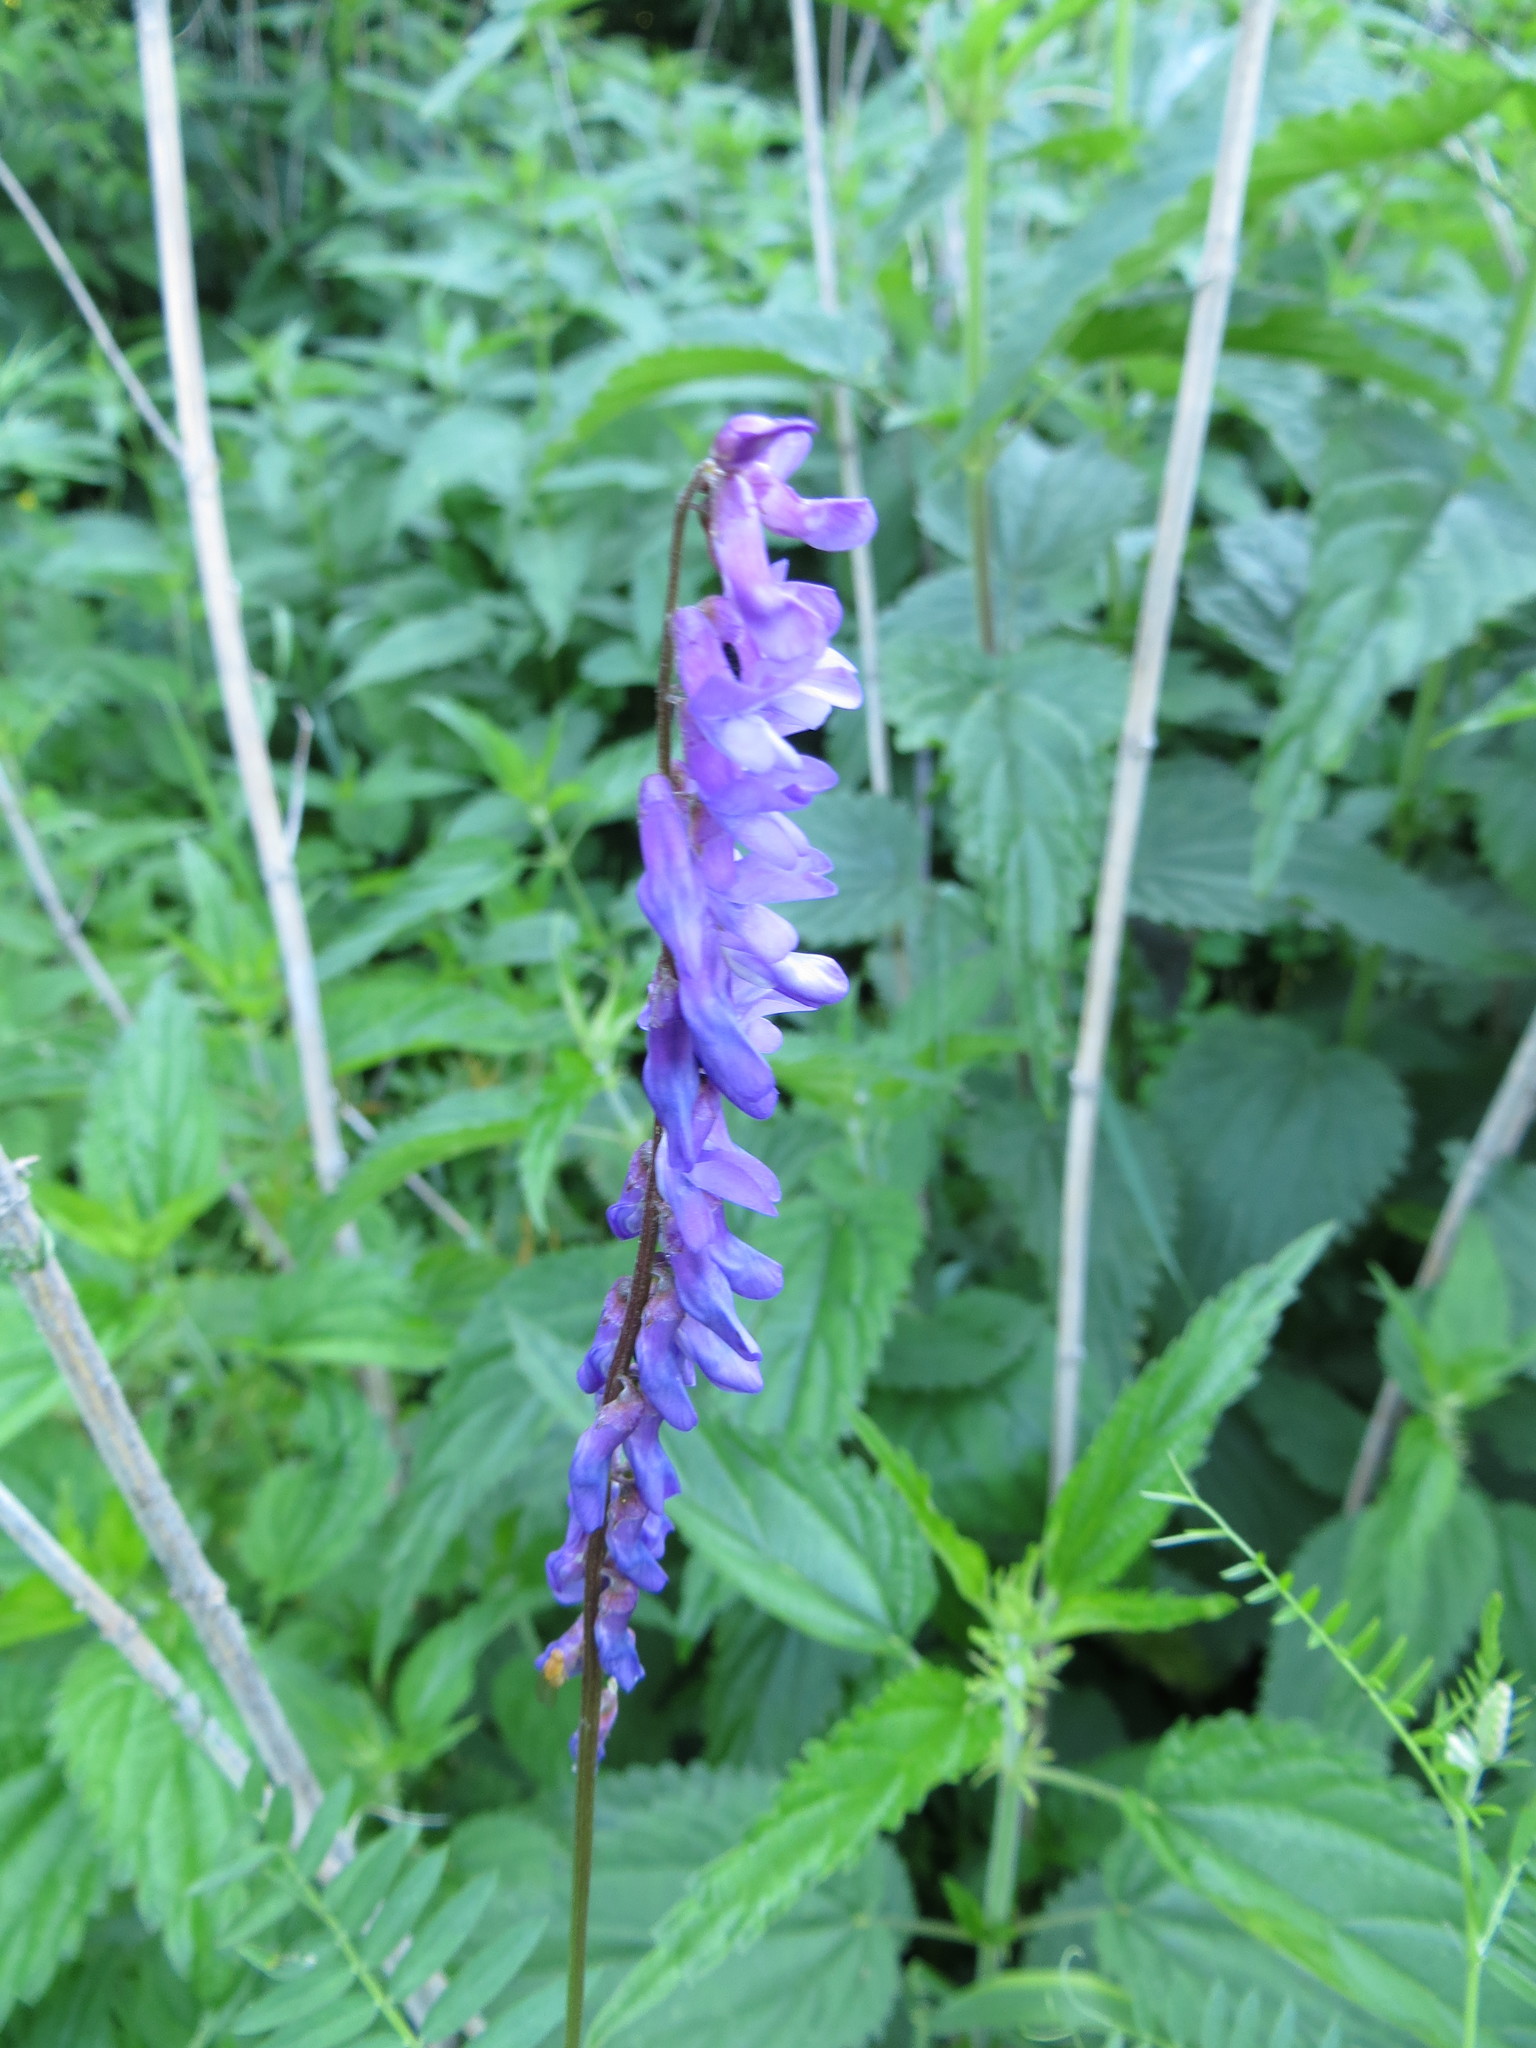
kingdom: Plantae
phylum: Tracheophyta
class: Magnoliopsida
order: Fabales
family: Fabaceae
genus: Vicia
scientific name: Vicia cracca
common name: Bird vetch
